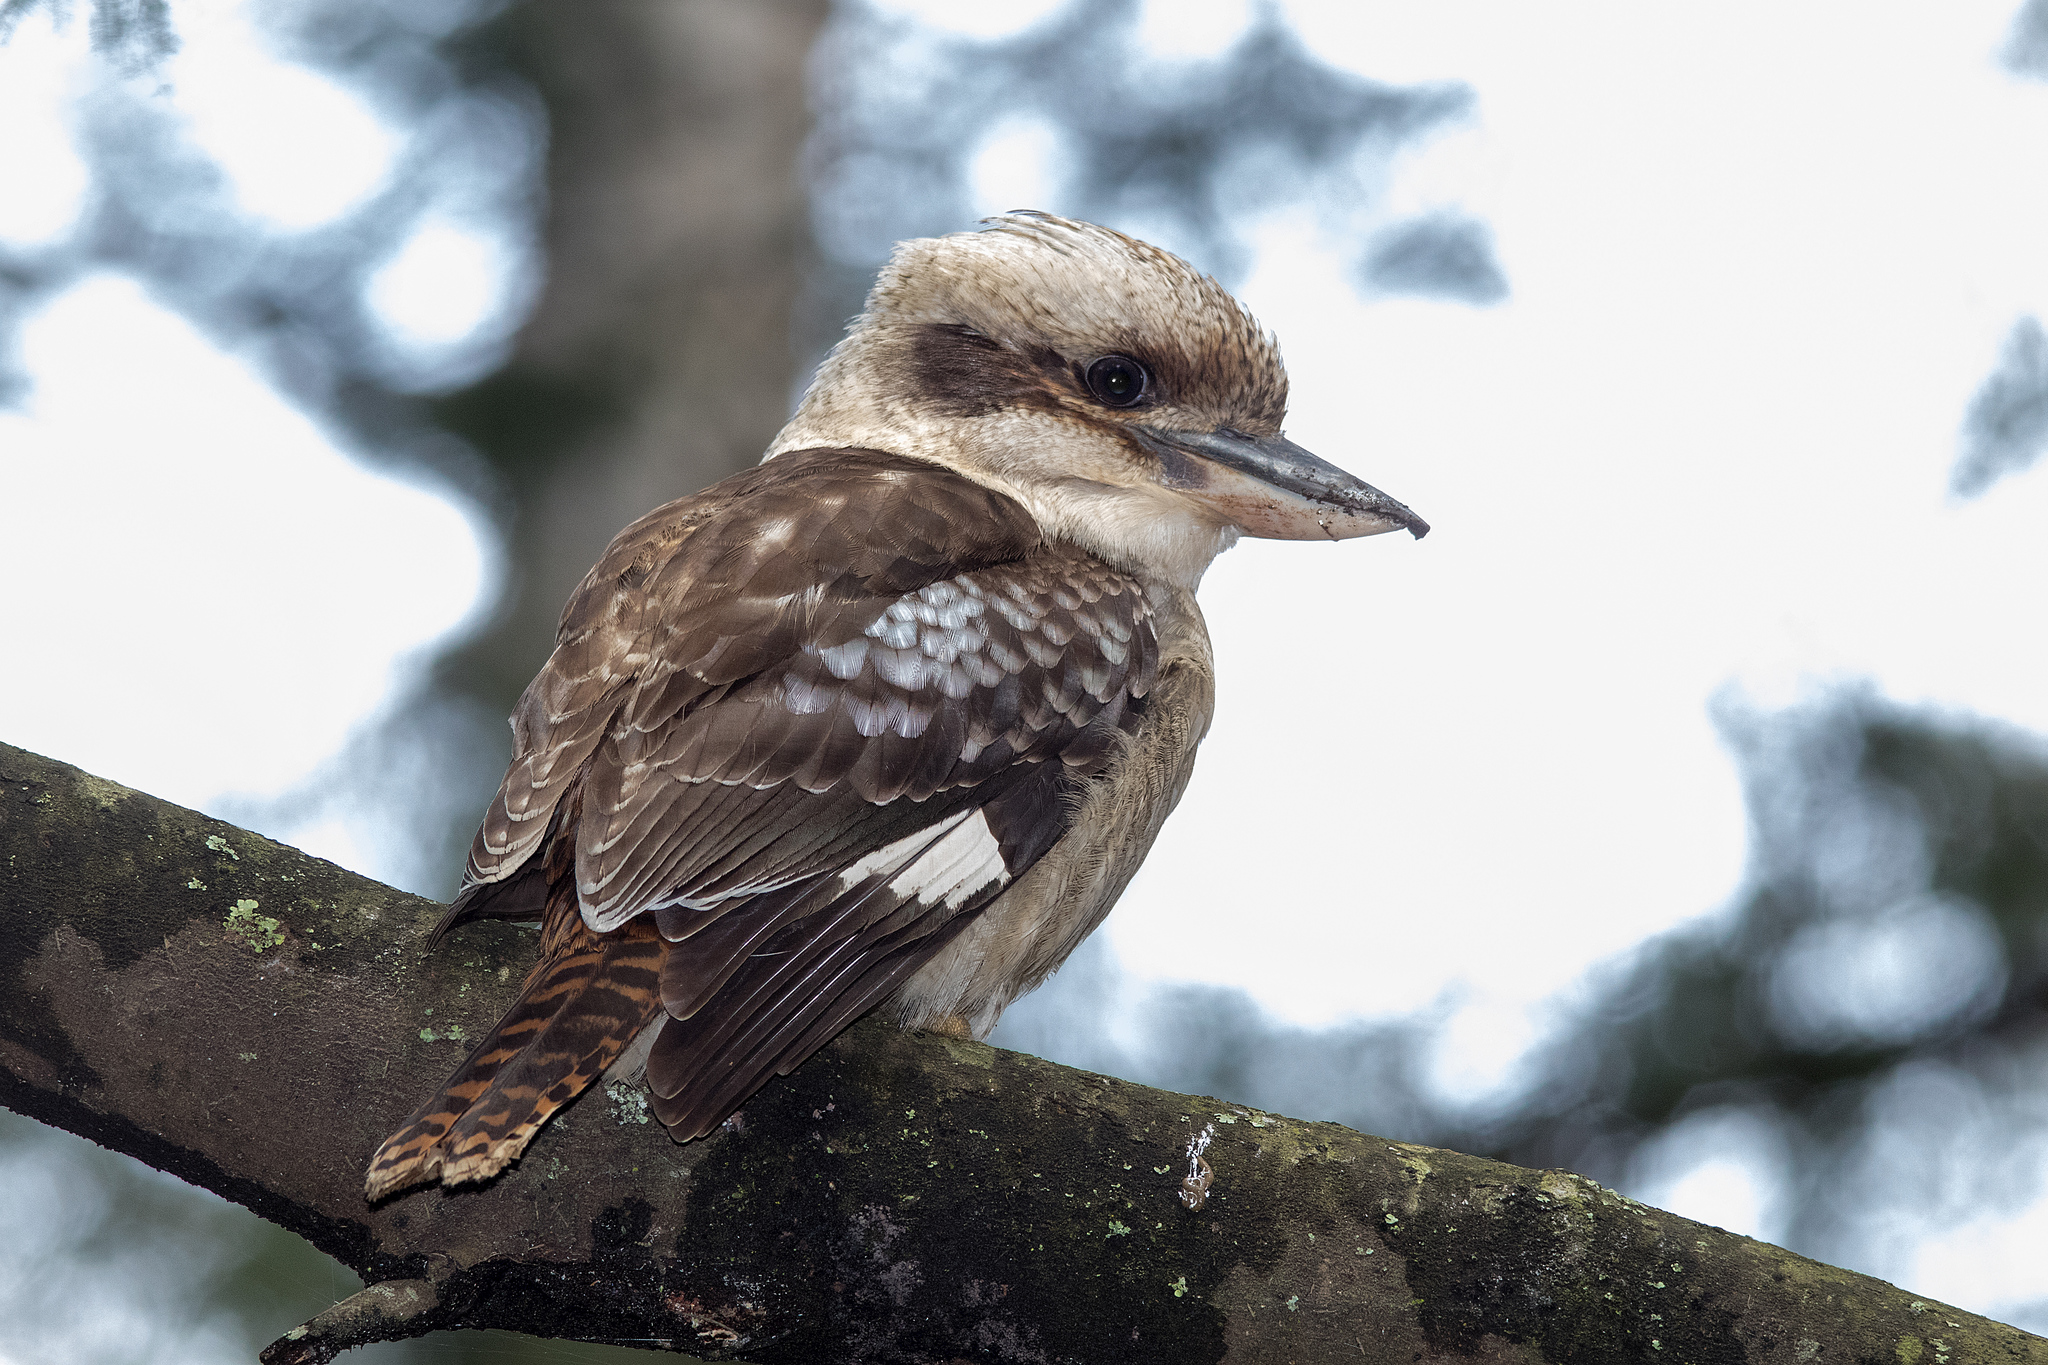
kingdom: Animalia
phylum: Chordata
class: Aves
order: Coraciiformes
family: Alcedinidae
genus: Dacelo
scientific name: Dacelo novaeguineae
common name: Laughing kookaburra
